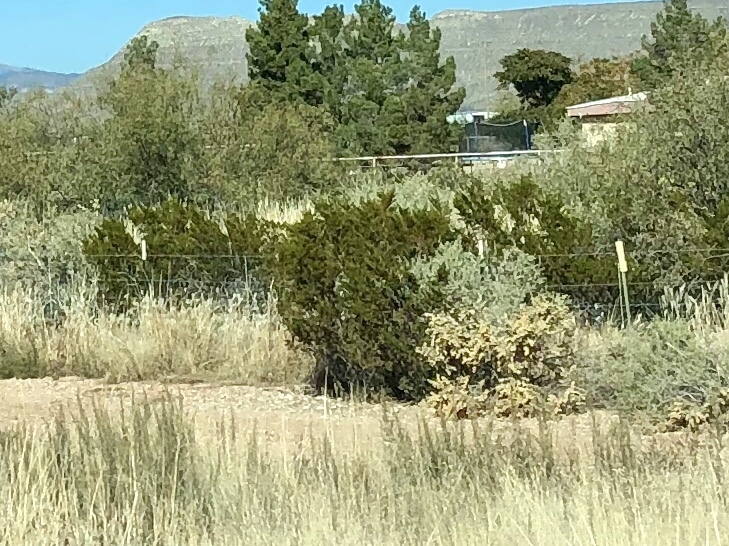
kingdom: Plantae
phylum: Tracheophyta
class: Magnoliopsida
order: Zygophyllales
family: Zygophyllaceae
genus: Larrea
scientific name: Larrea tridentata
